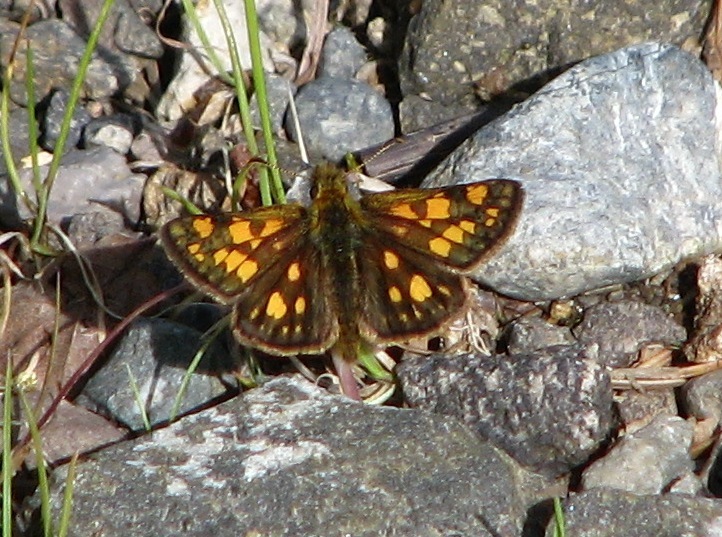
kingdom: Animalia
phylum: Arthropoda
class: Insecta
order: Lepidoptera
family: Hesperiidae
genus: Carterocephalus
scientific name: Carterocephalus skada
